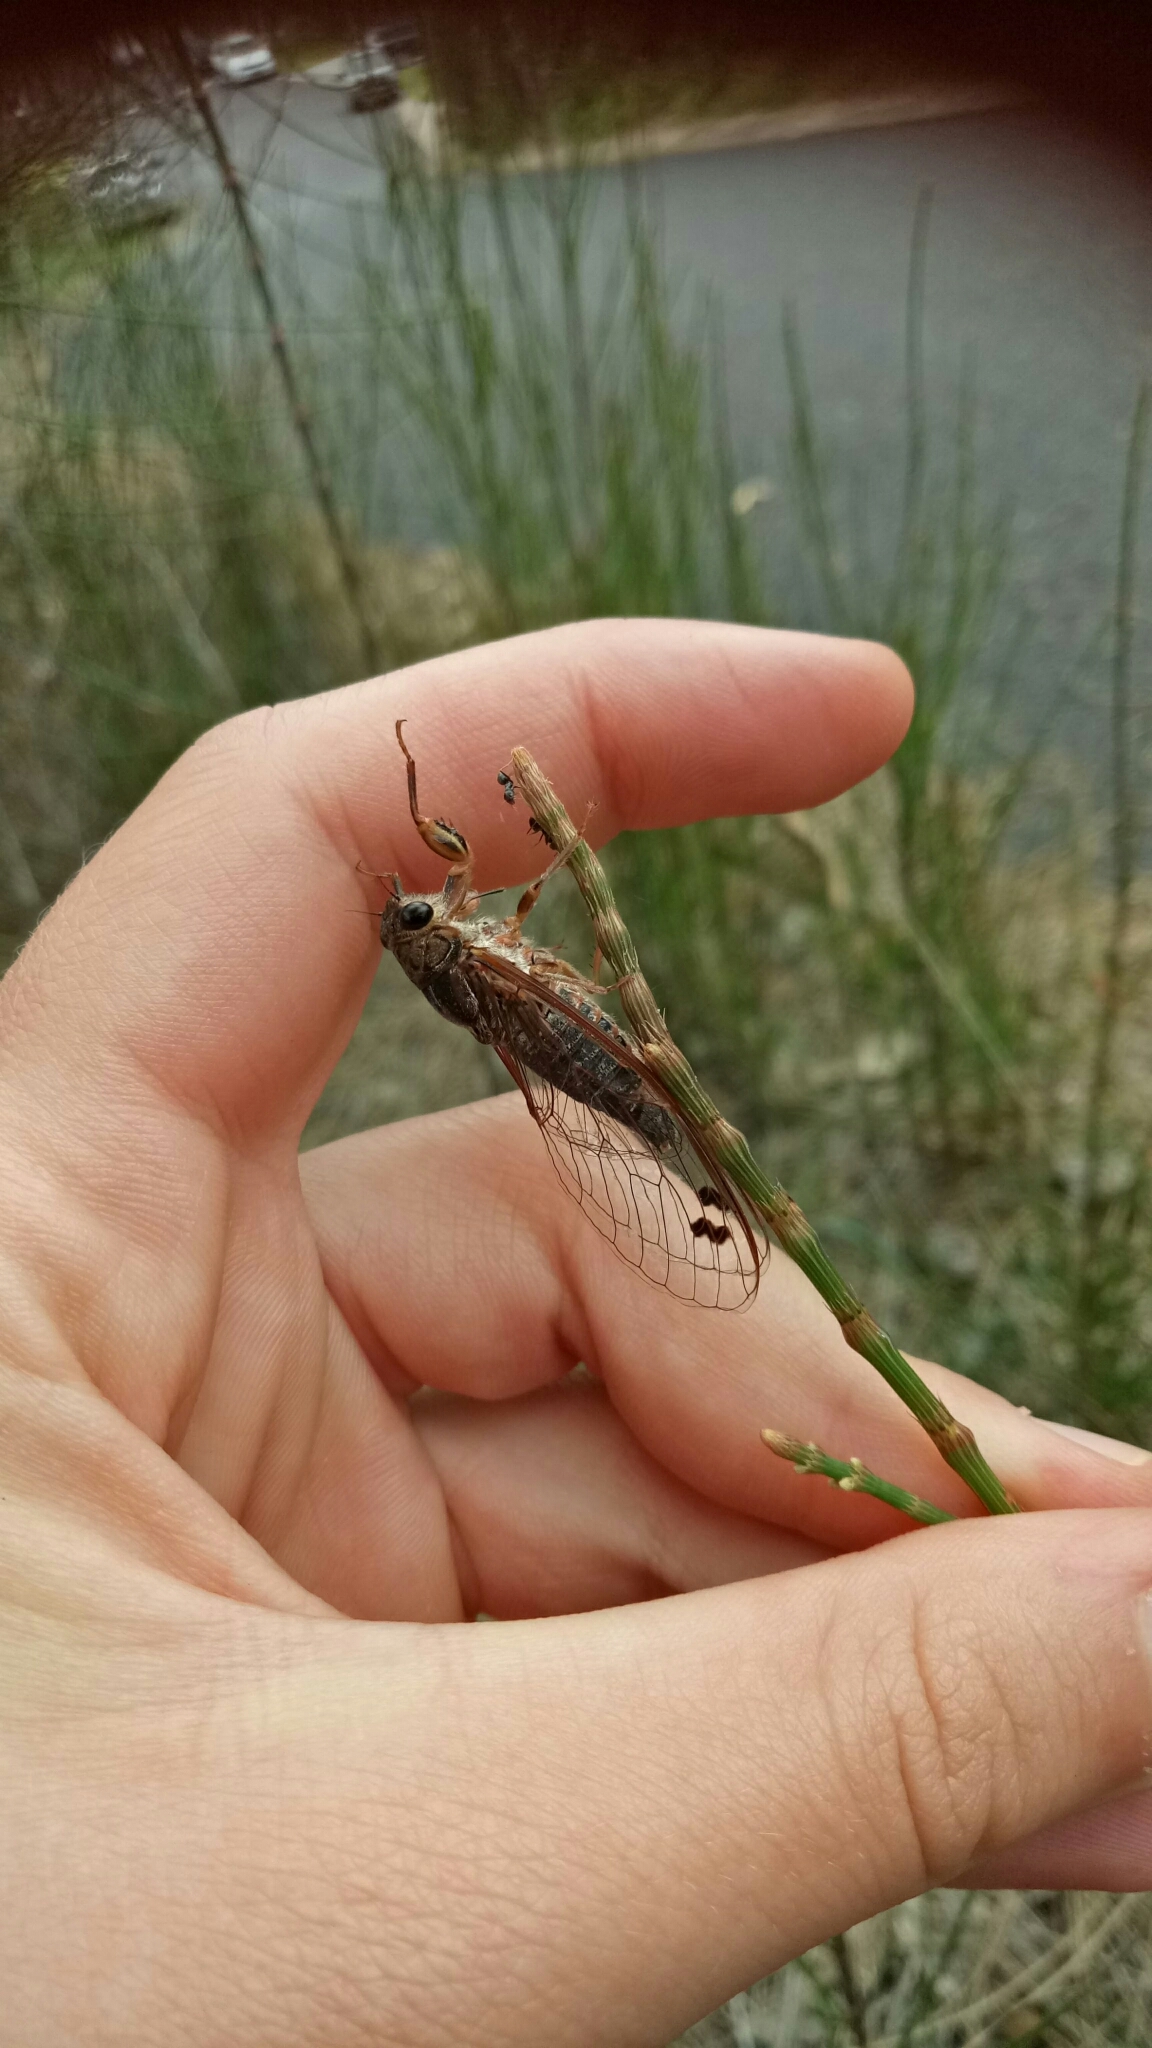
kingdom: Animalia
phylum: Arthropoda
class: Insecta
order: Hemiptera
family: Cicadidae
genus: Galanga
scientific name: Galanga labeculata
